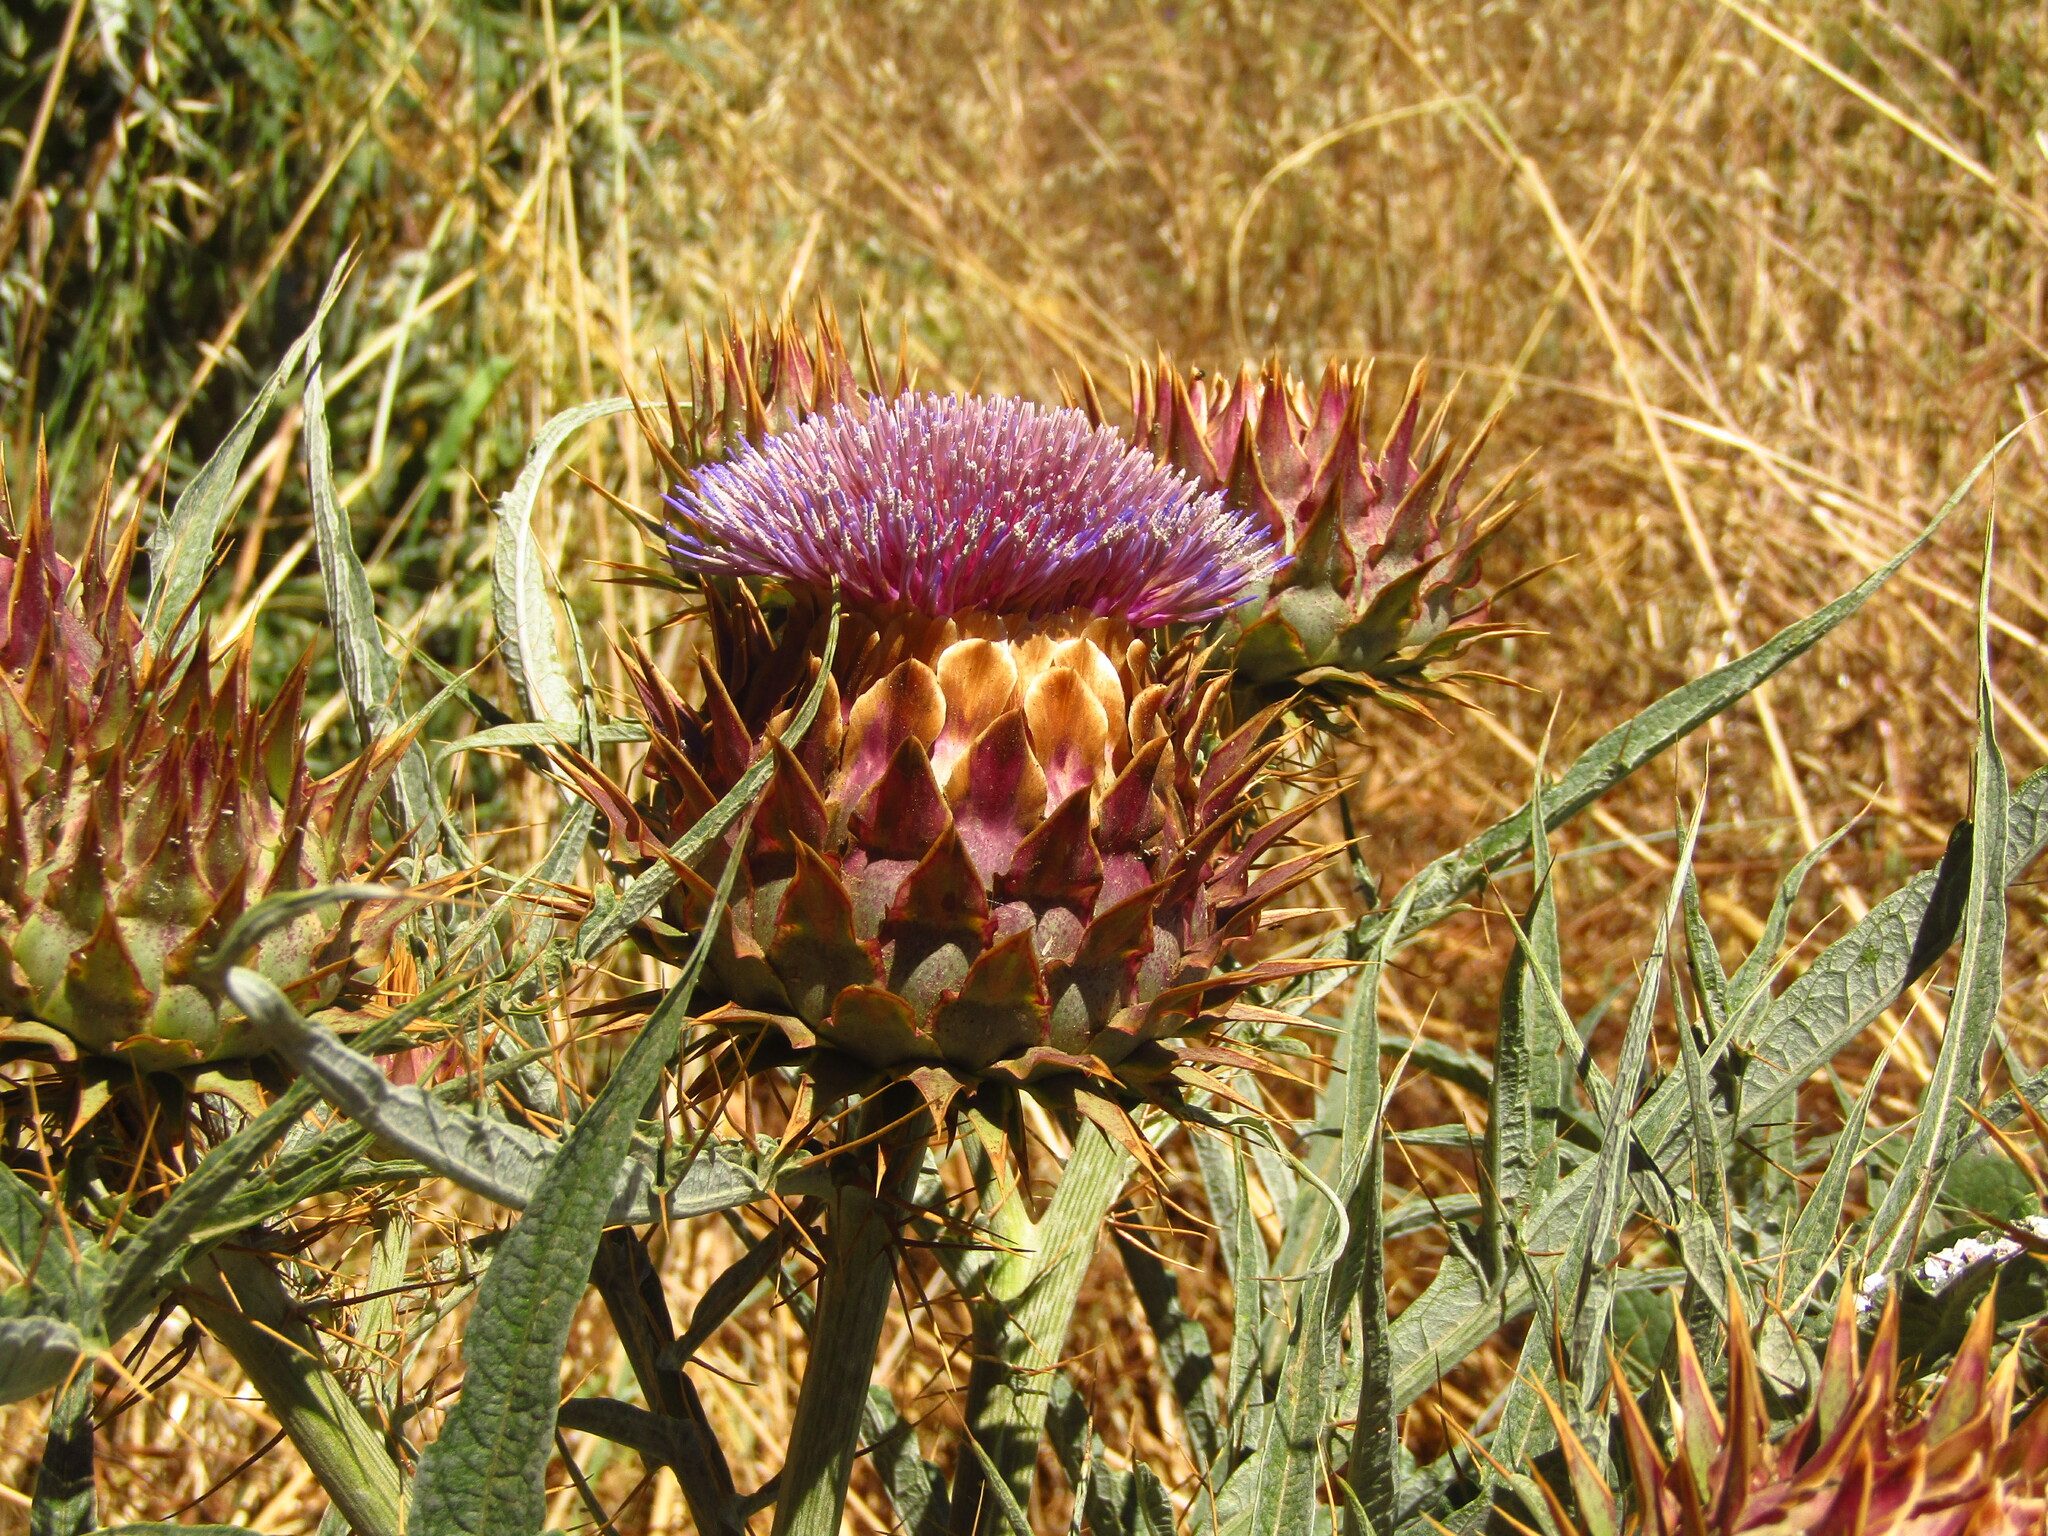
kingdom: Plantae
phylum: Tracheophyta
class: Magnoliopsida
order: Asterales
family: Asteraceae
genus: Cynara
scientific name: Cynara cardunculus
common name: Globe artichoke
